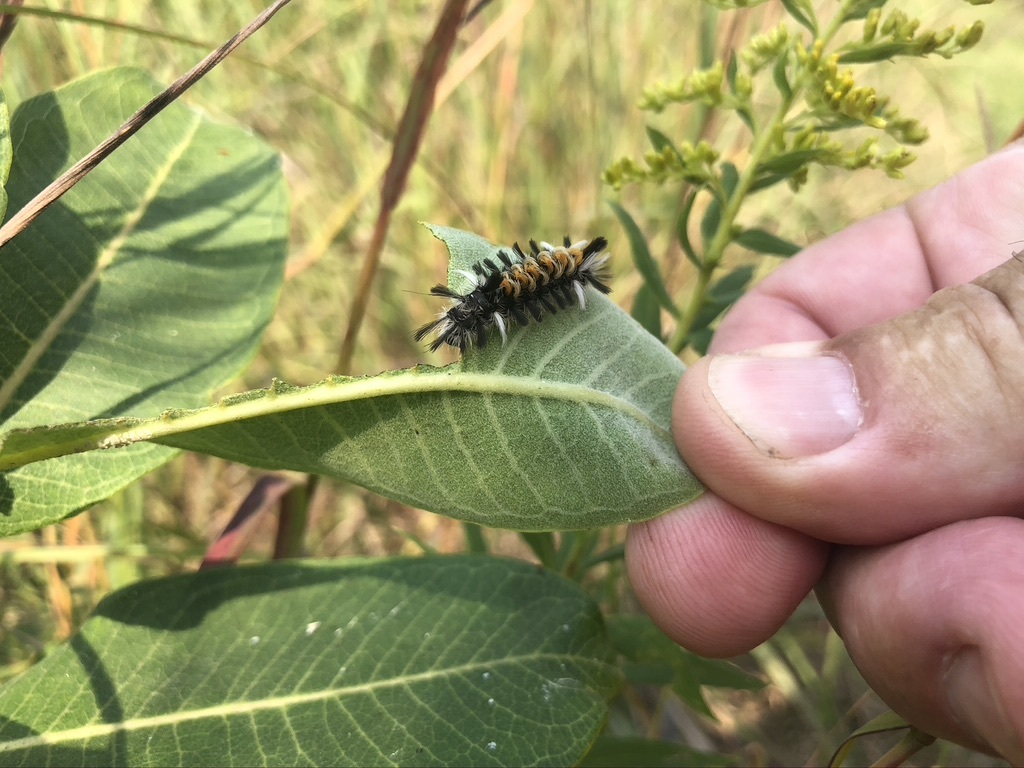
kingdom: Animalia
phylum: Arthropoda
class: Insecta
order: Lepidoptera
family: Erebidae
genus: Euchaetes
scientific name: Euchaetes egle
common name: Milkweed tussock moth
